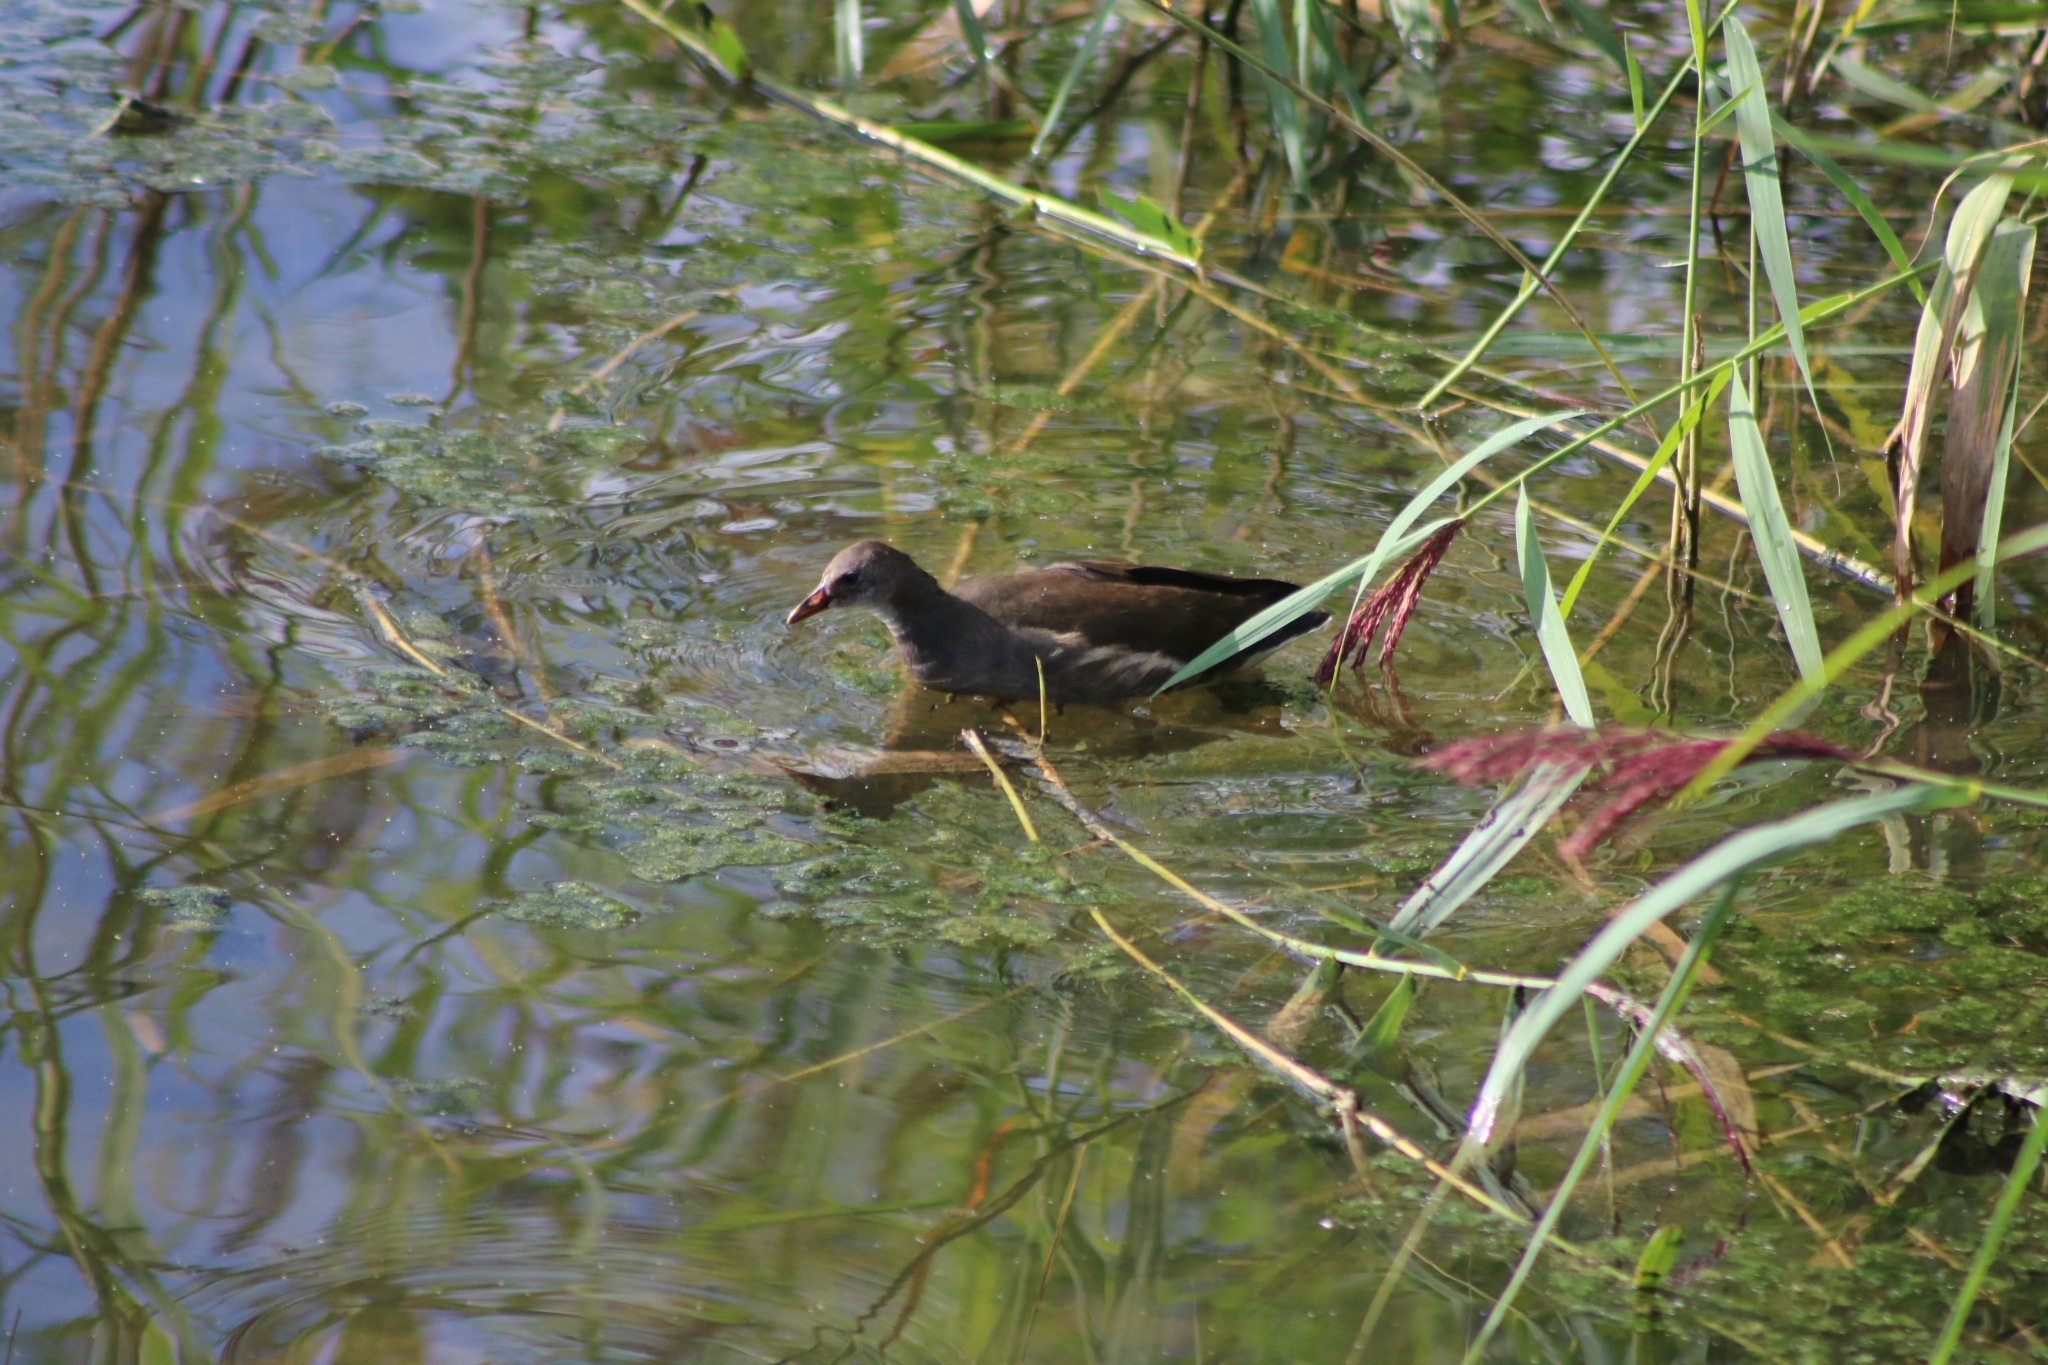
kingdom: Animalia
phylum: Chordata
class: Aves
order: Gruiformes
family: Rallidae
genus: Gallinula
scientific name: Gallinula chloropus
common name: Common moorhen
